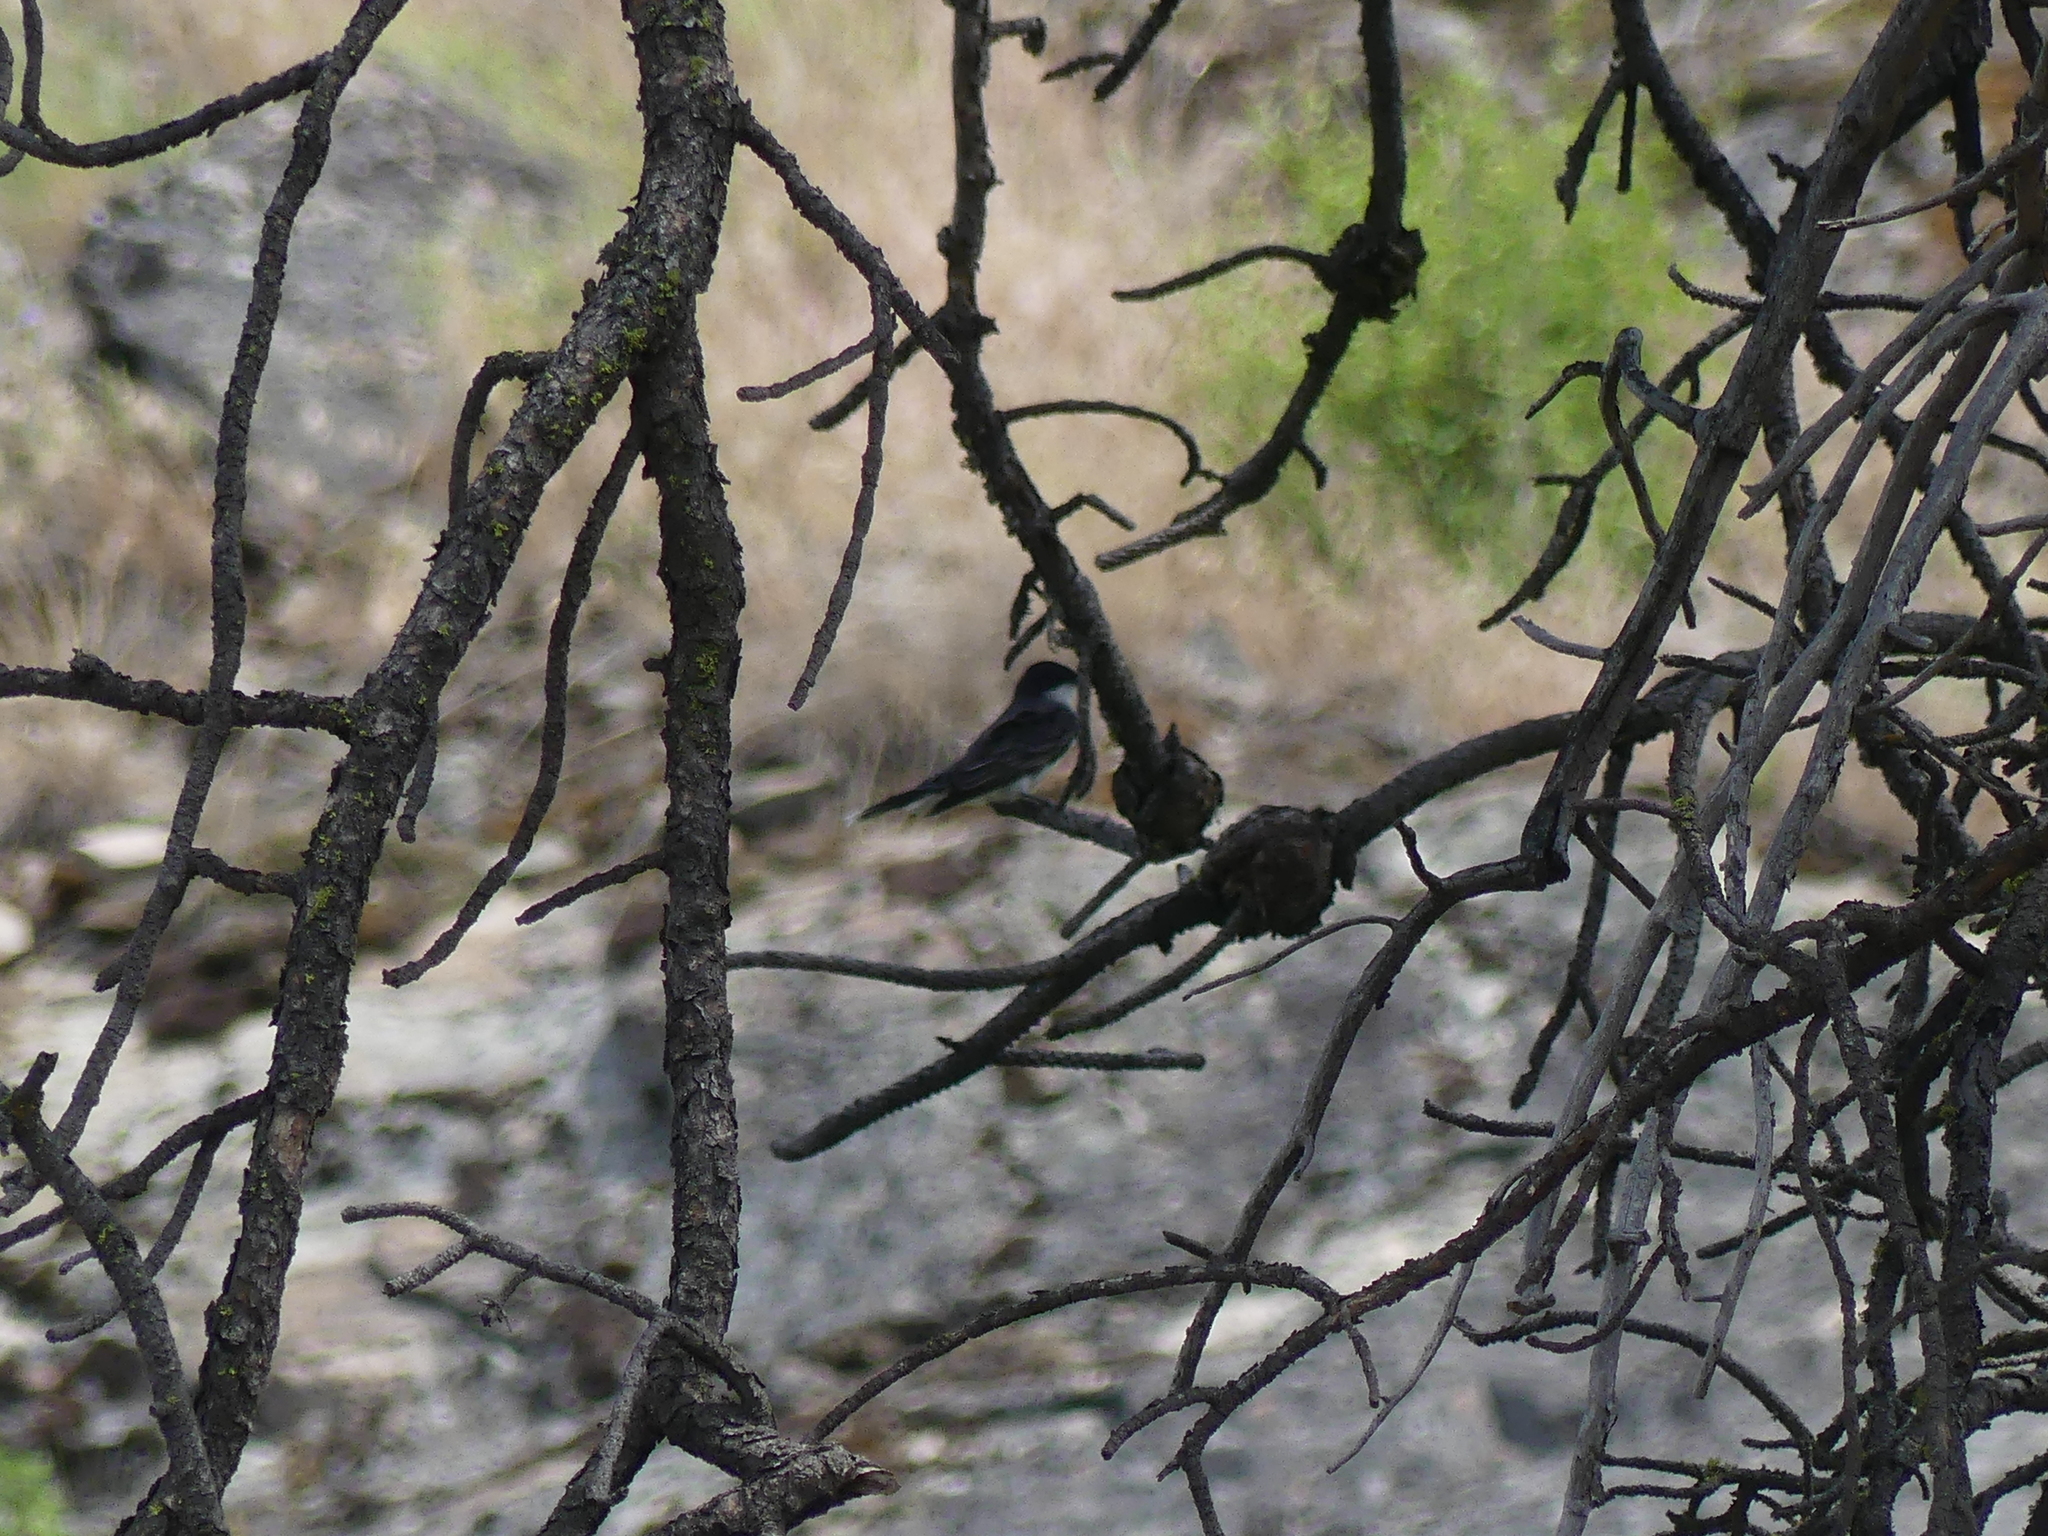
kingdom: Animalia
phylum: Chordata
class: Aves
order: Passeriformes
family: Tyrannidae
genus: Tyrannus
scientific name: Tyrannus tyrannus
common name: Eastern kingbird
